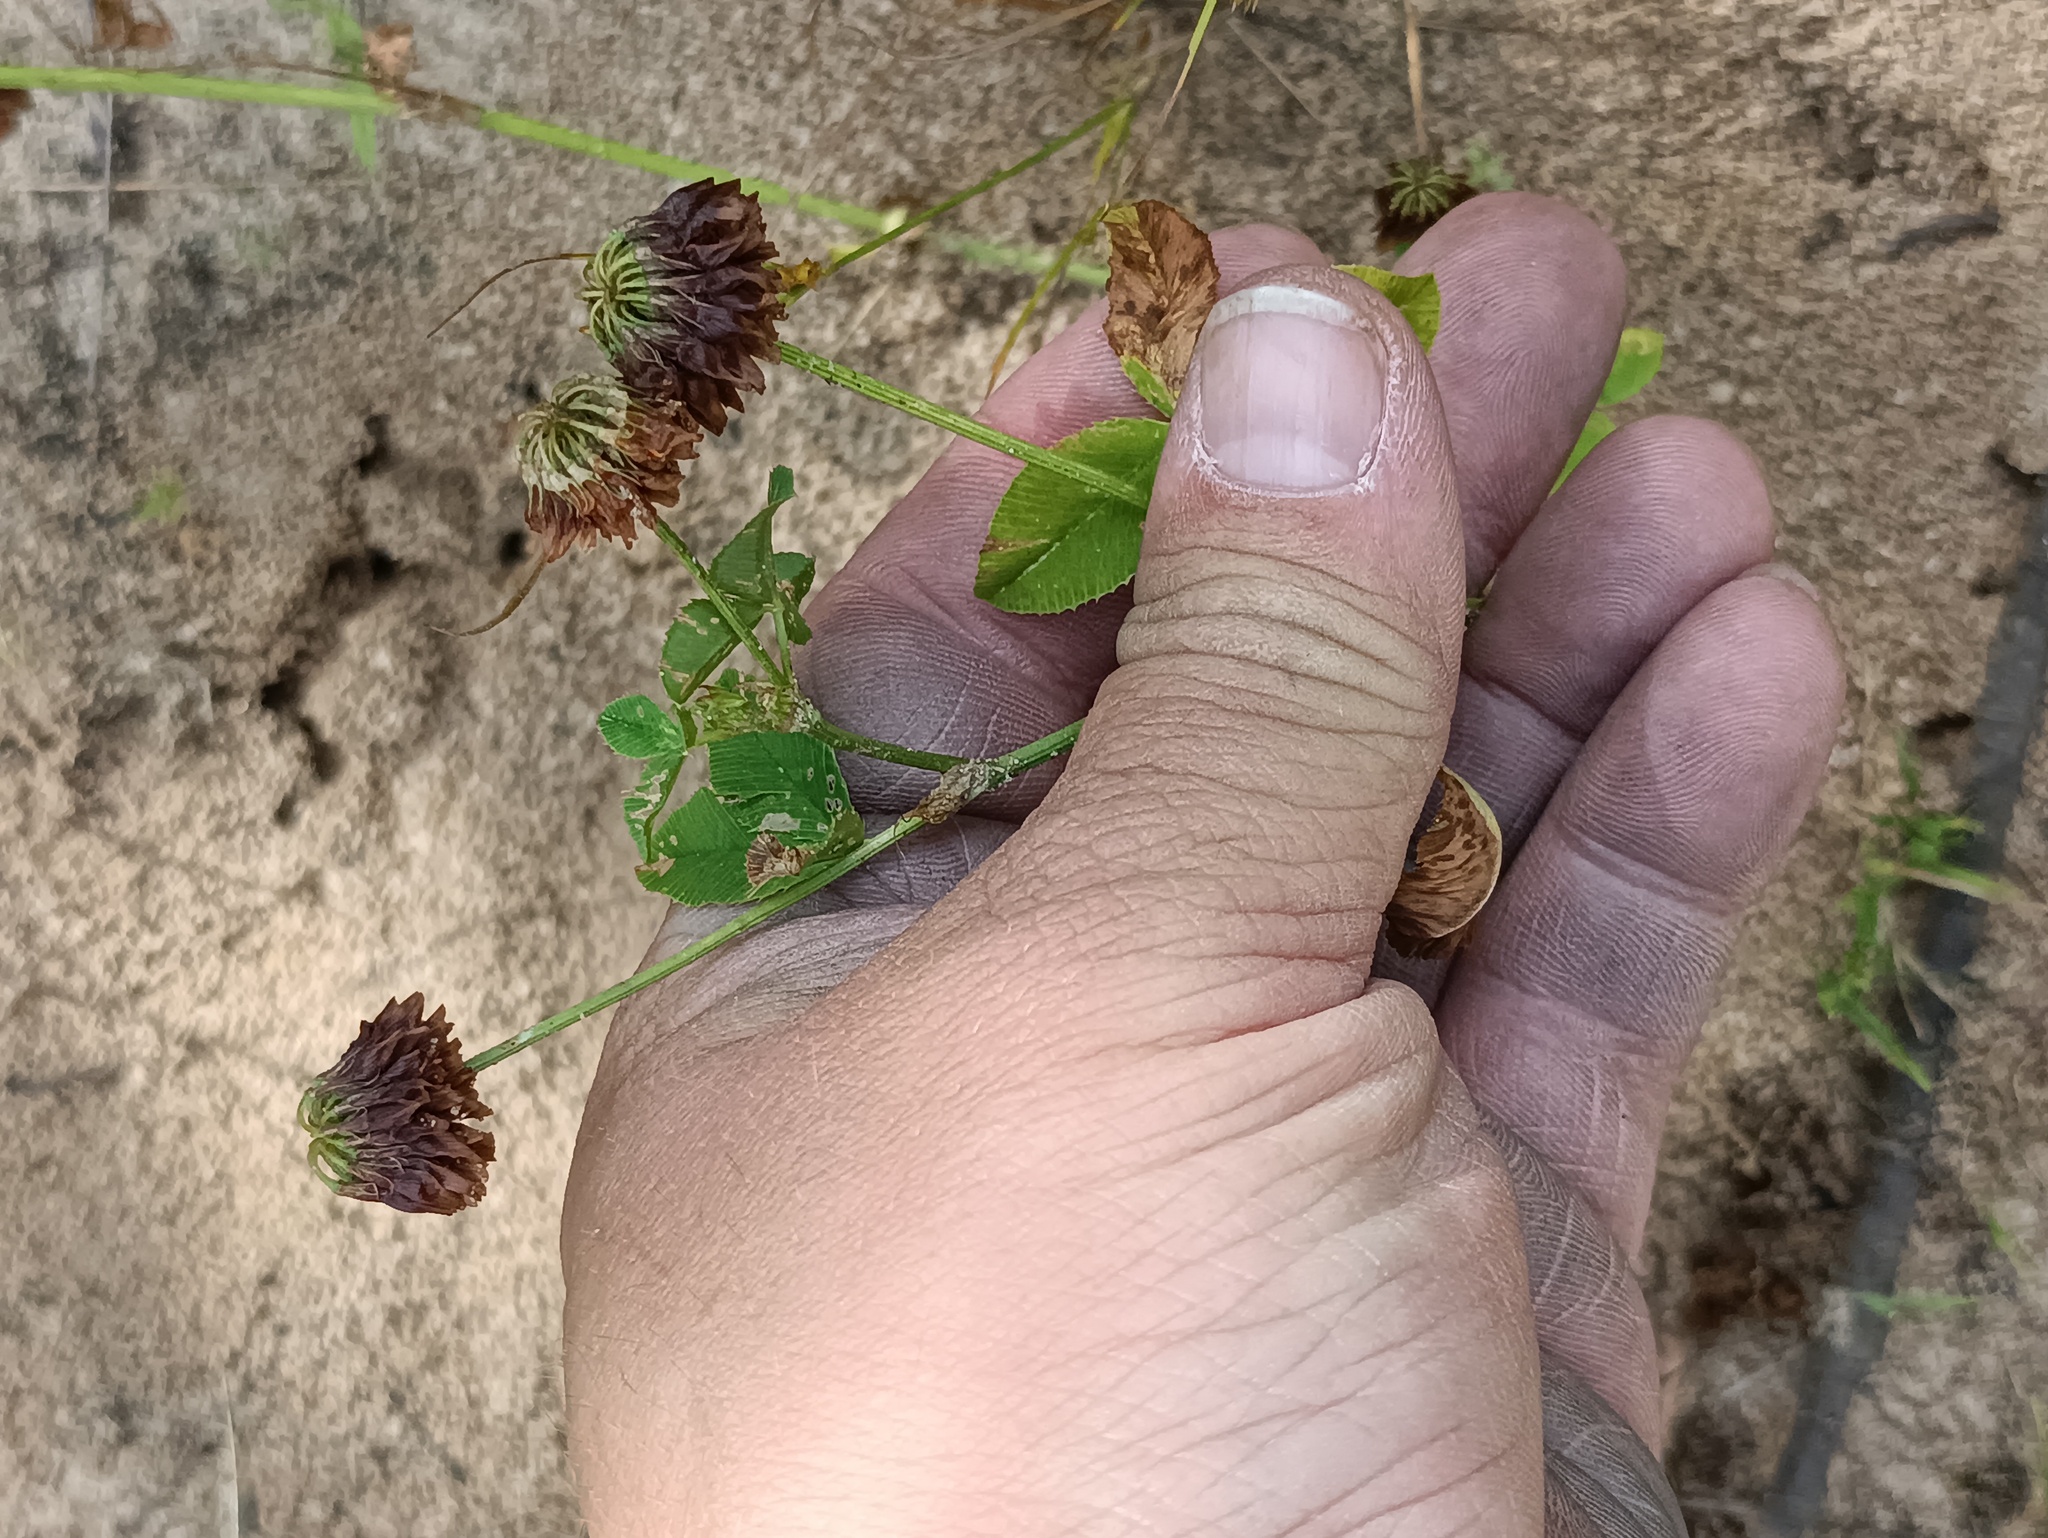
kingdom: Plantae
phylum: Tracheophyta
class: Magnoliopsida
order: Fabales
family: Fabaceae
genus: Trifolium
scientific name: Trifolium hybridum
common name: Alsike clover
